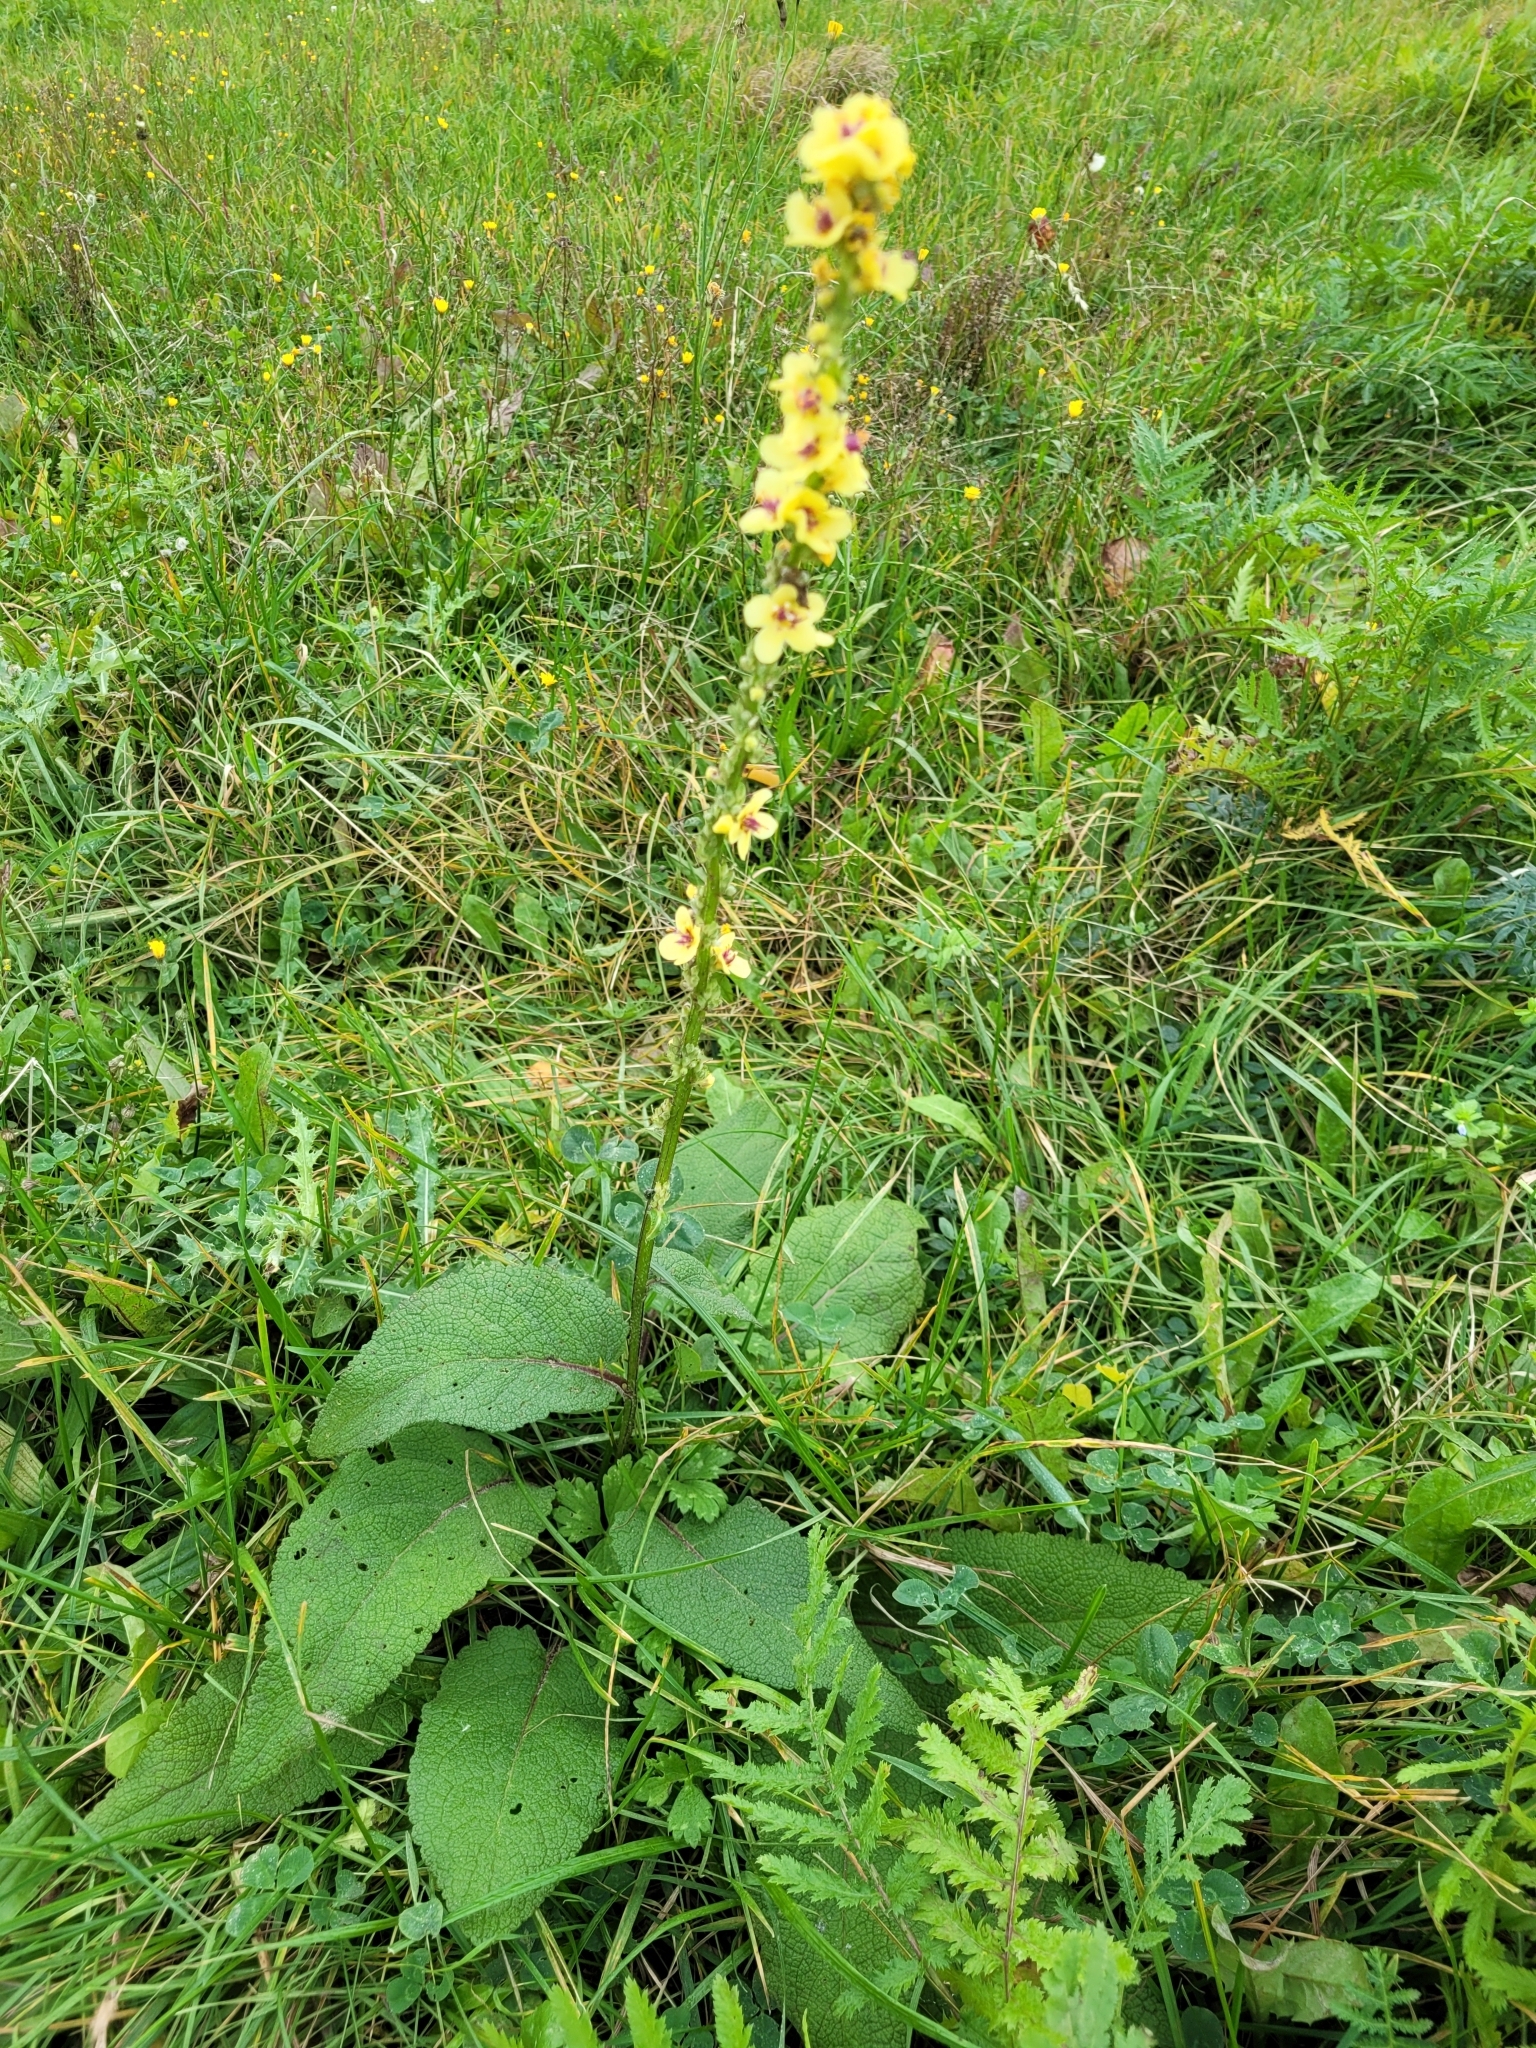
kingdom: Plantae
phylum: Tracheophyta
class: Magnoliopsida
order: Lamiales
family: Scrophulariaceae
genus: Verbascum
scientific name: Verbascum nigrum
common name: Dark mullein
